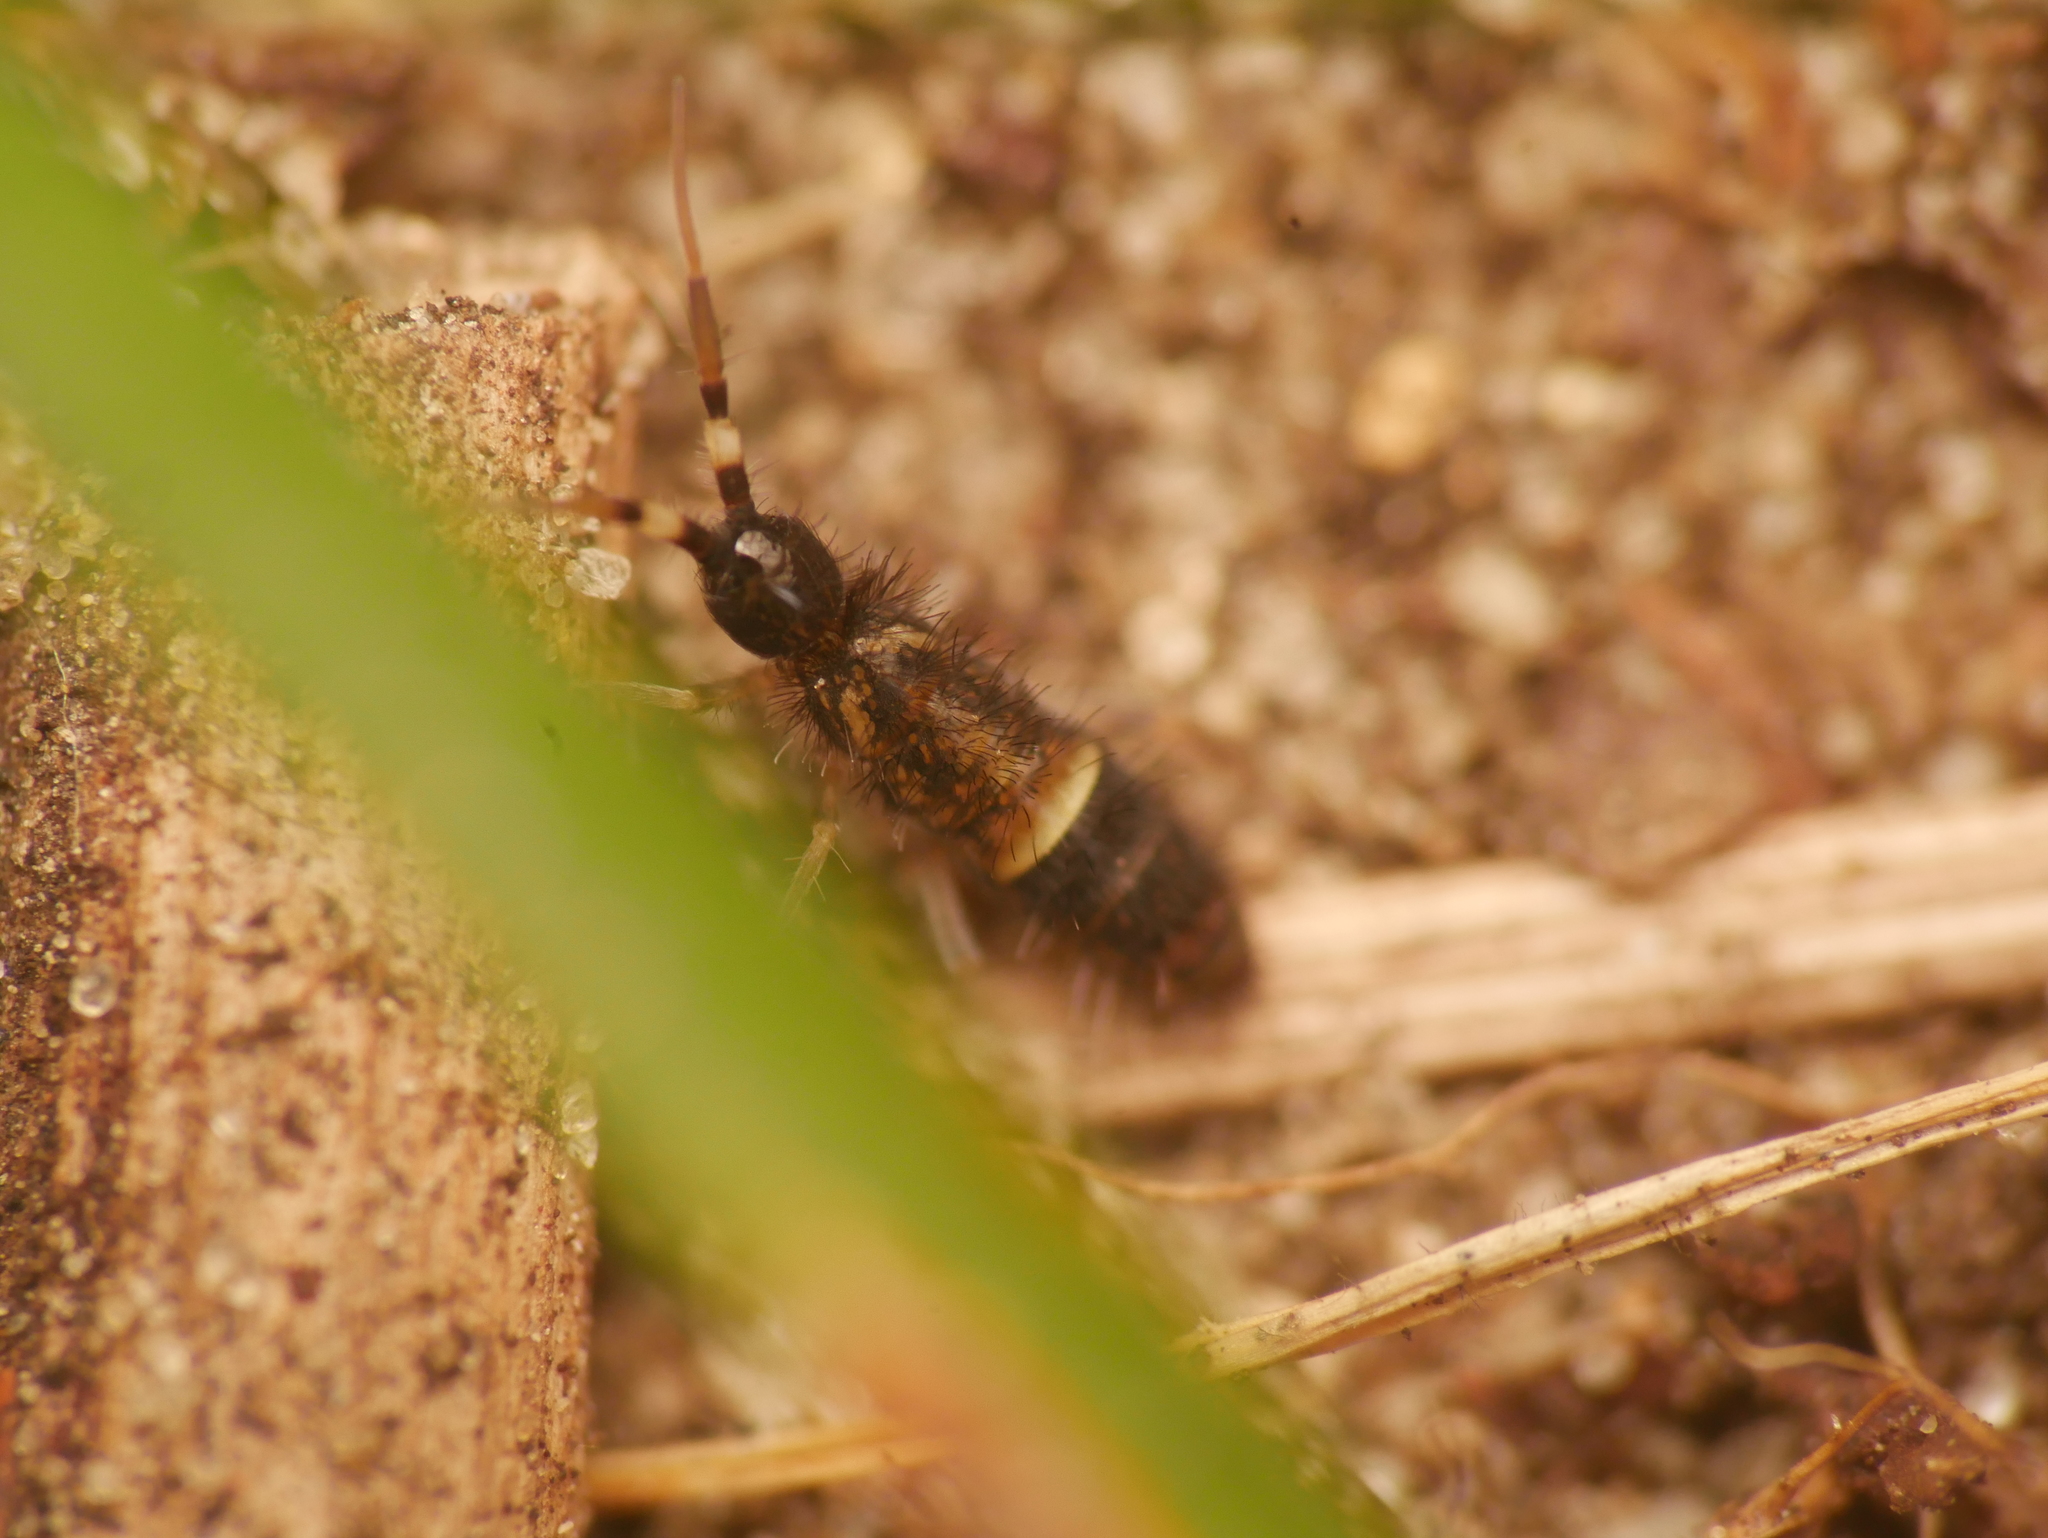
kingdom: Animalia
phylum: Arthropoda
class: Collembola
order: Entomobryomorpha
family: Orchesellidae
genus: Orchesella
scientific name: Orchesella cincta
